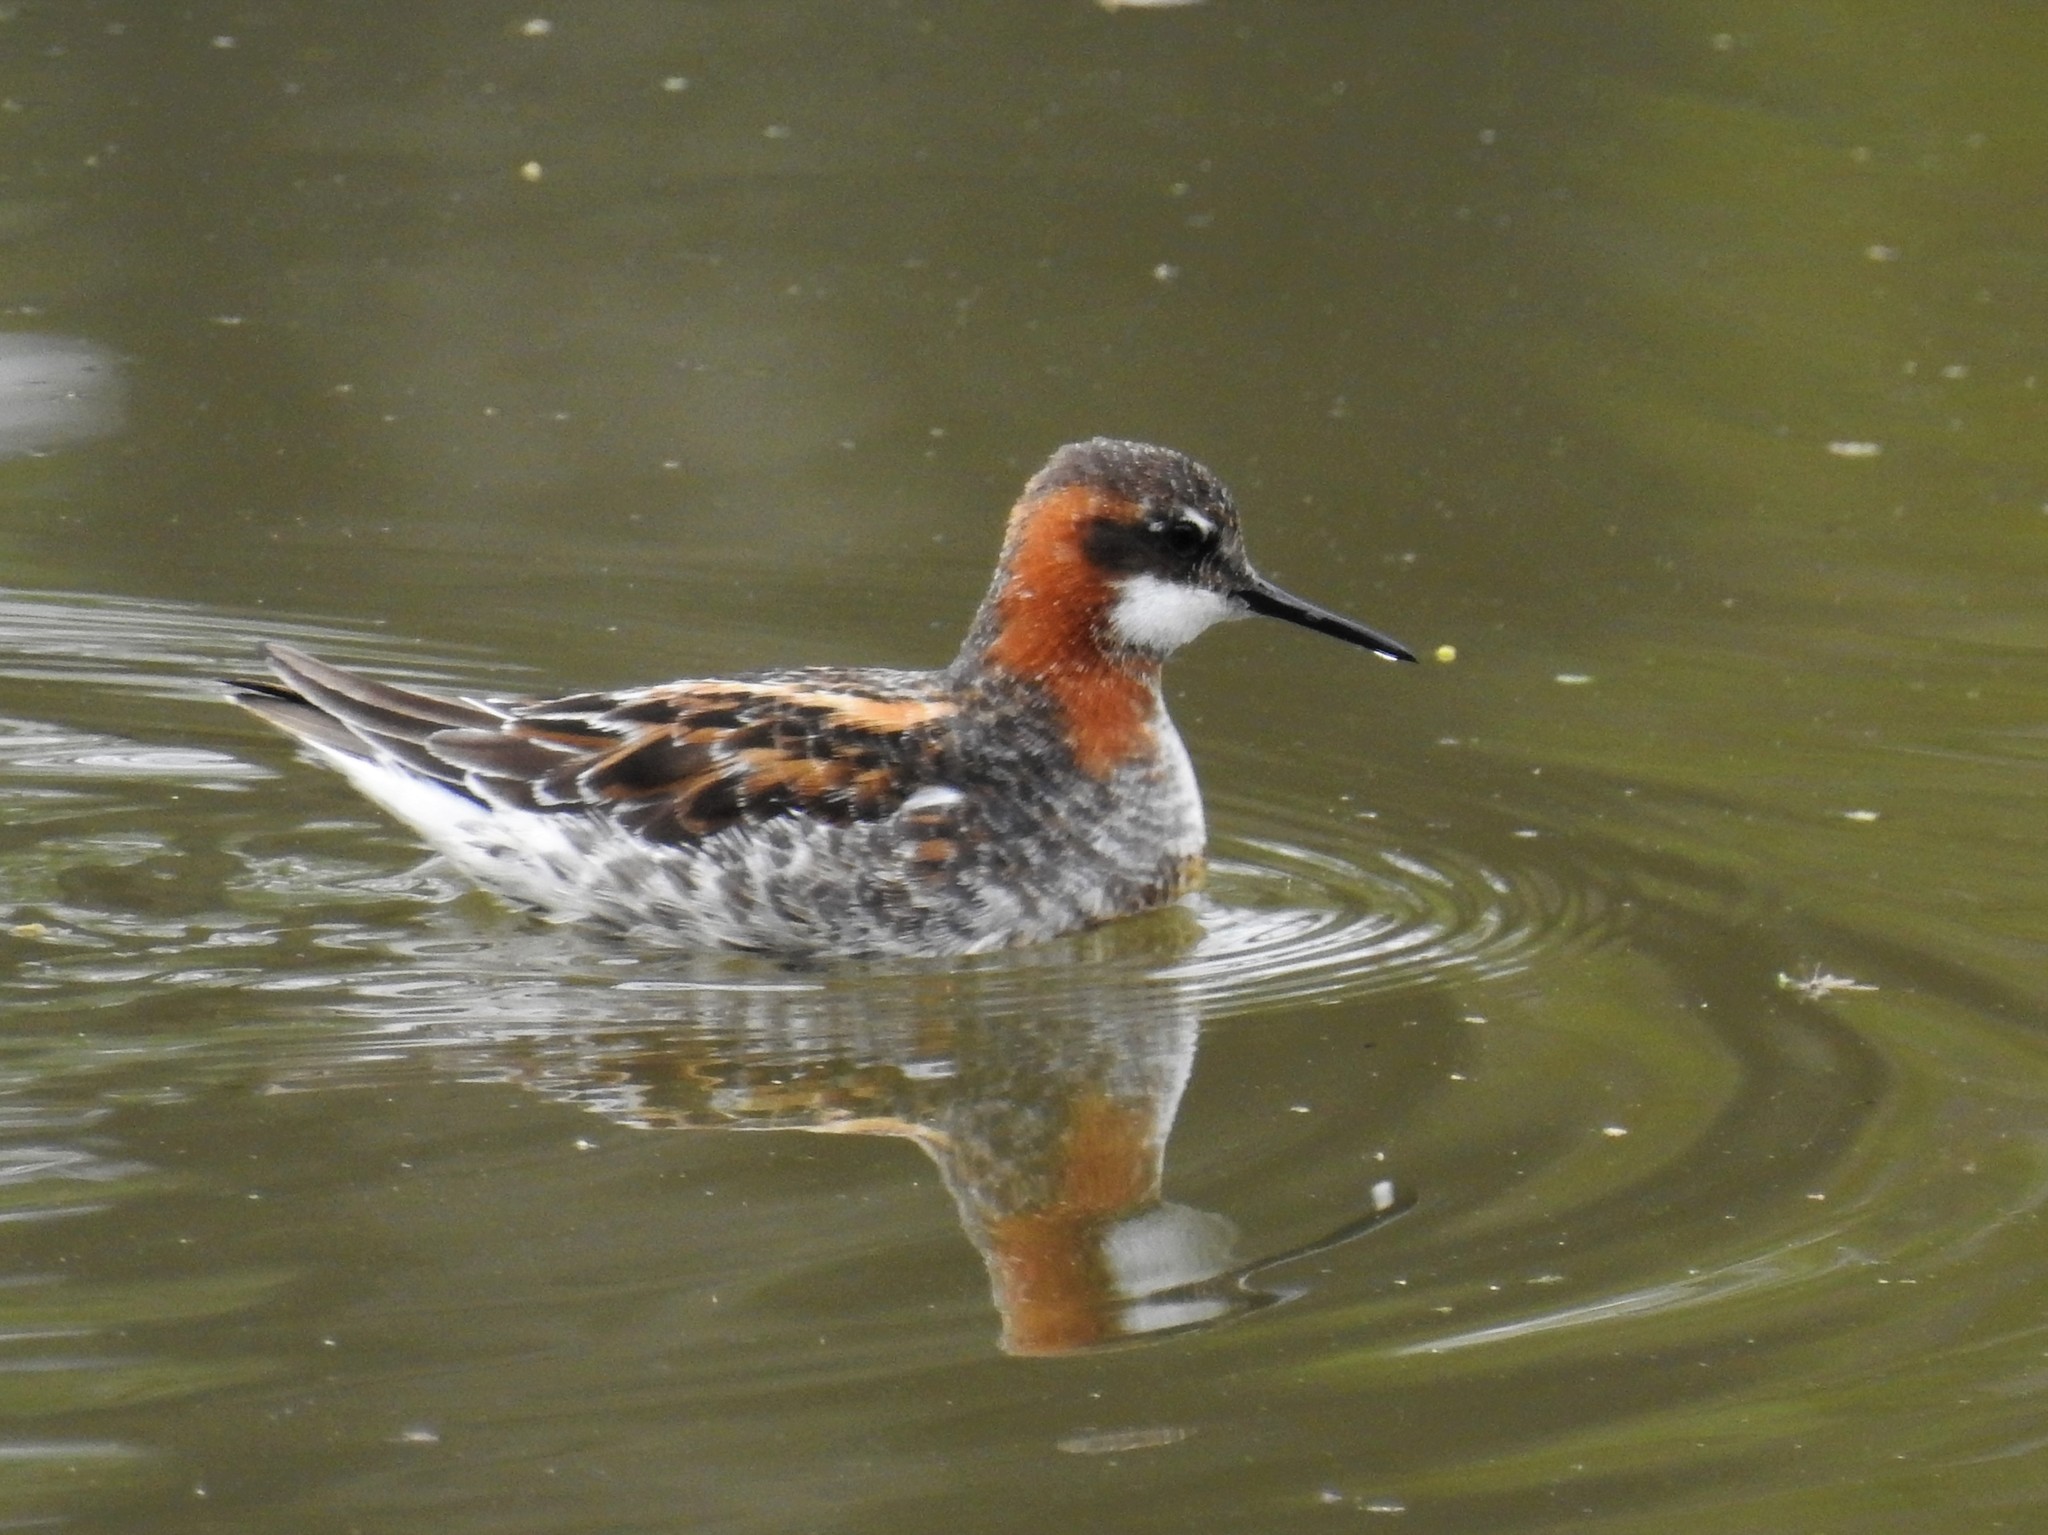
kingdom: Animalia
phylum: Chordata
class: Aves
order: Charadriiformes
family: Scolopacidae
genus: Phalaropus
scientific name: Phalaropus lobatus
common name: Red-necked phalarope
